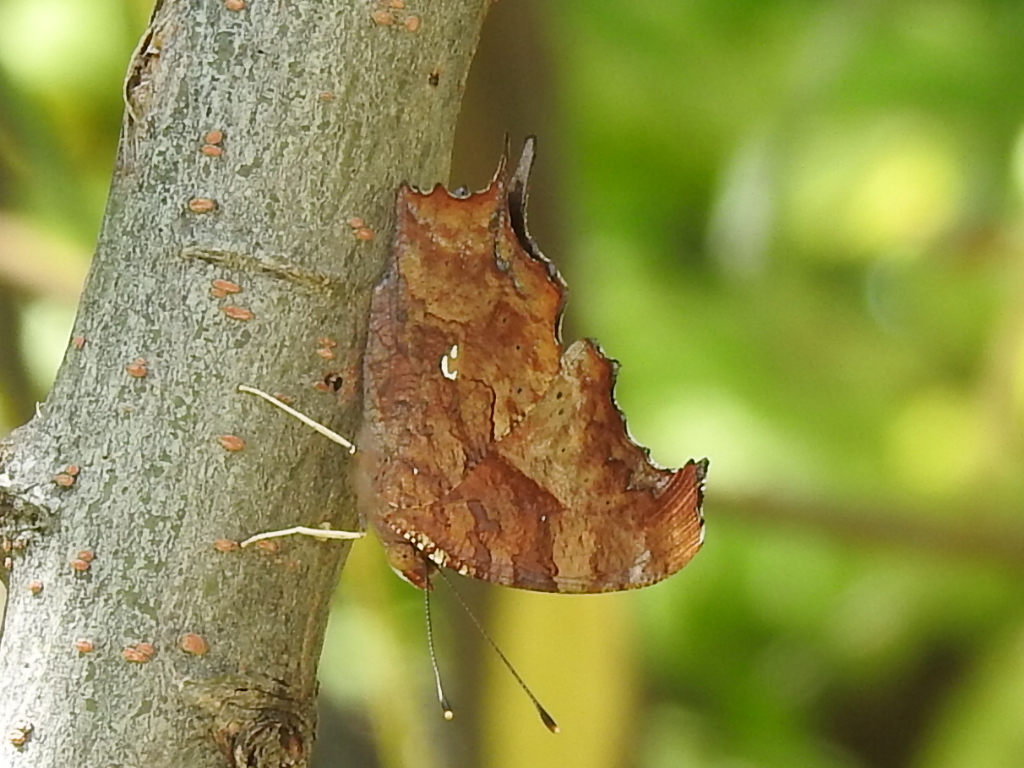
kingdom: Animalia
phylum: Arthropoda
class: Insecta
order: Lepidoptera
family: Nymphalidae
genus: Polygonia
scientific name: Polygonia interrogationis
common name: Question mark
